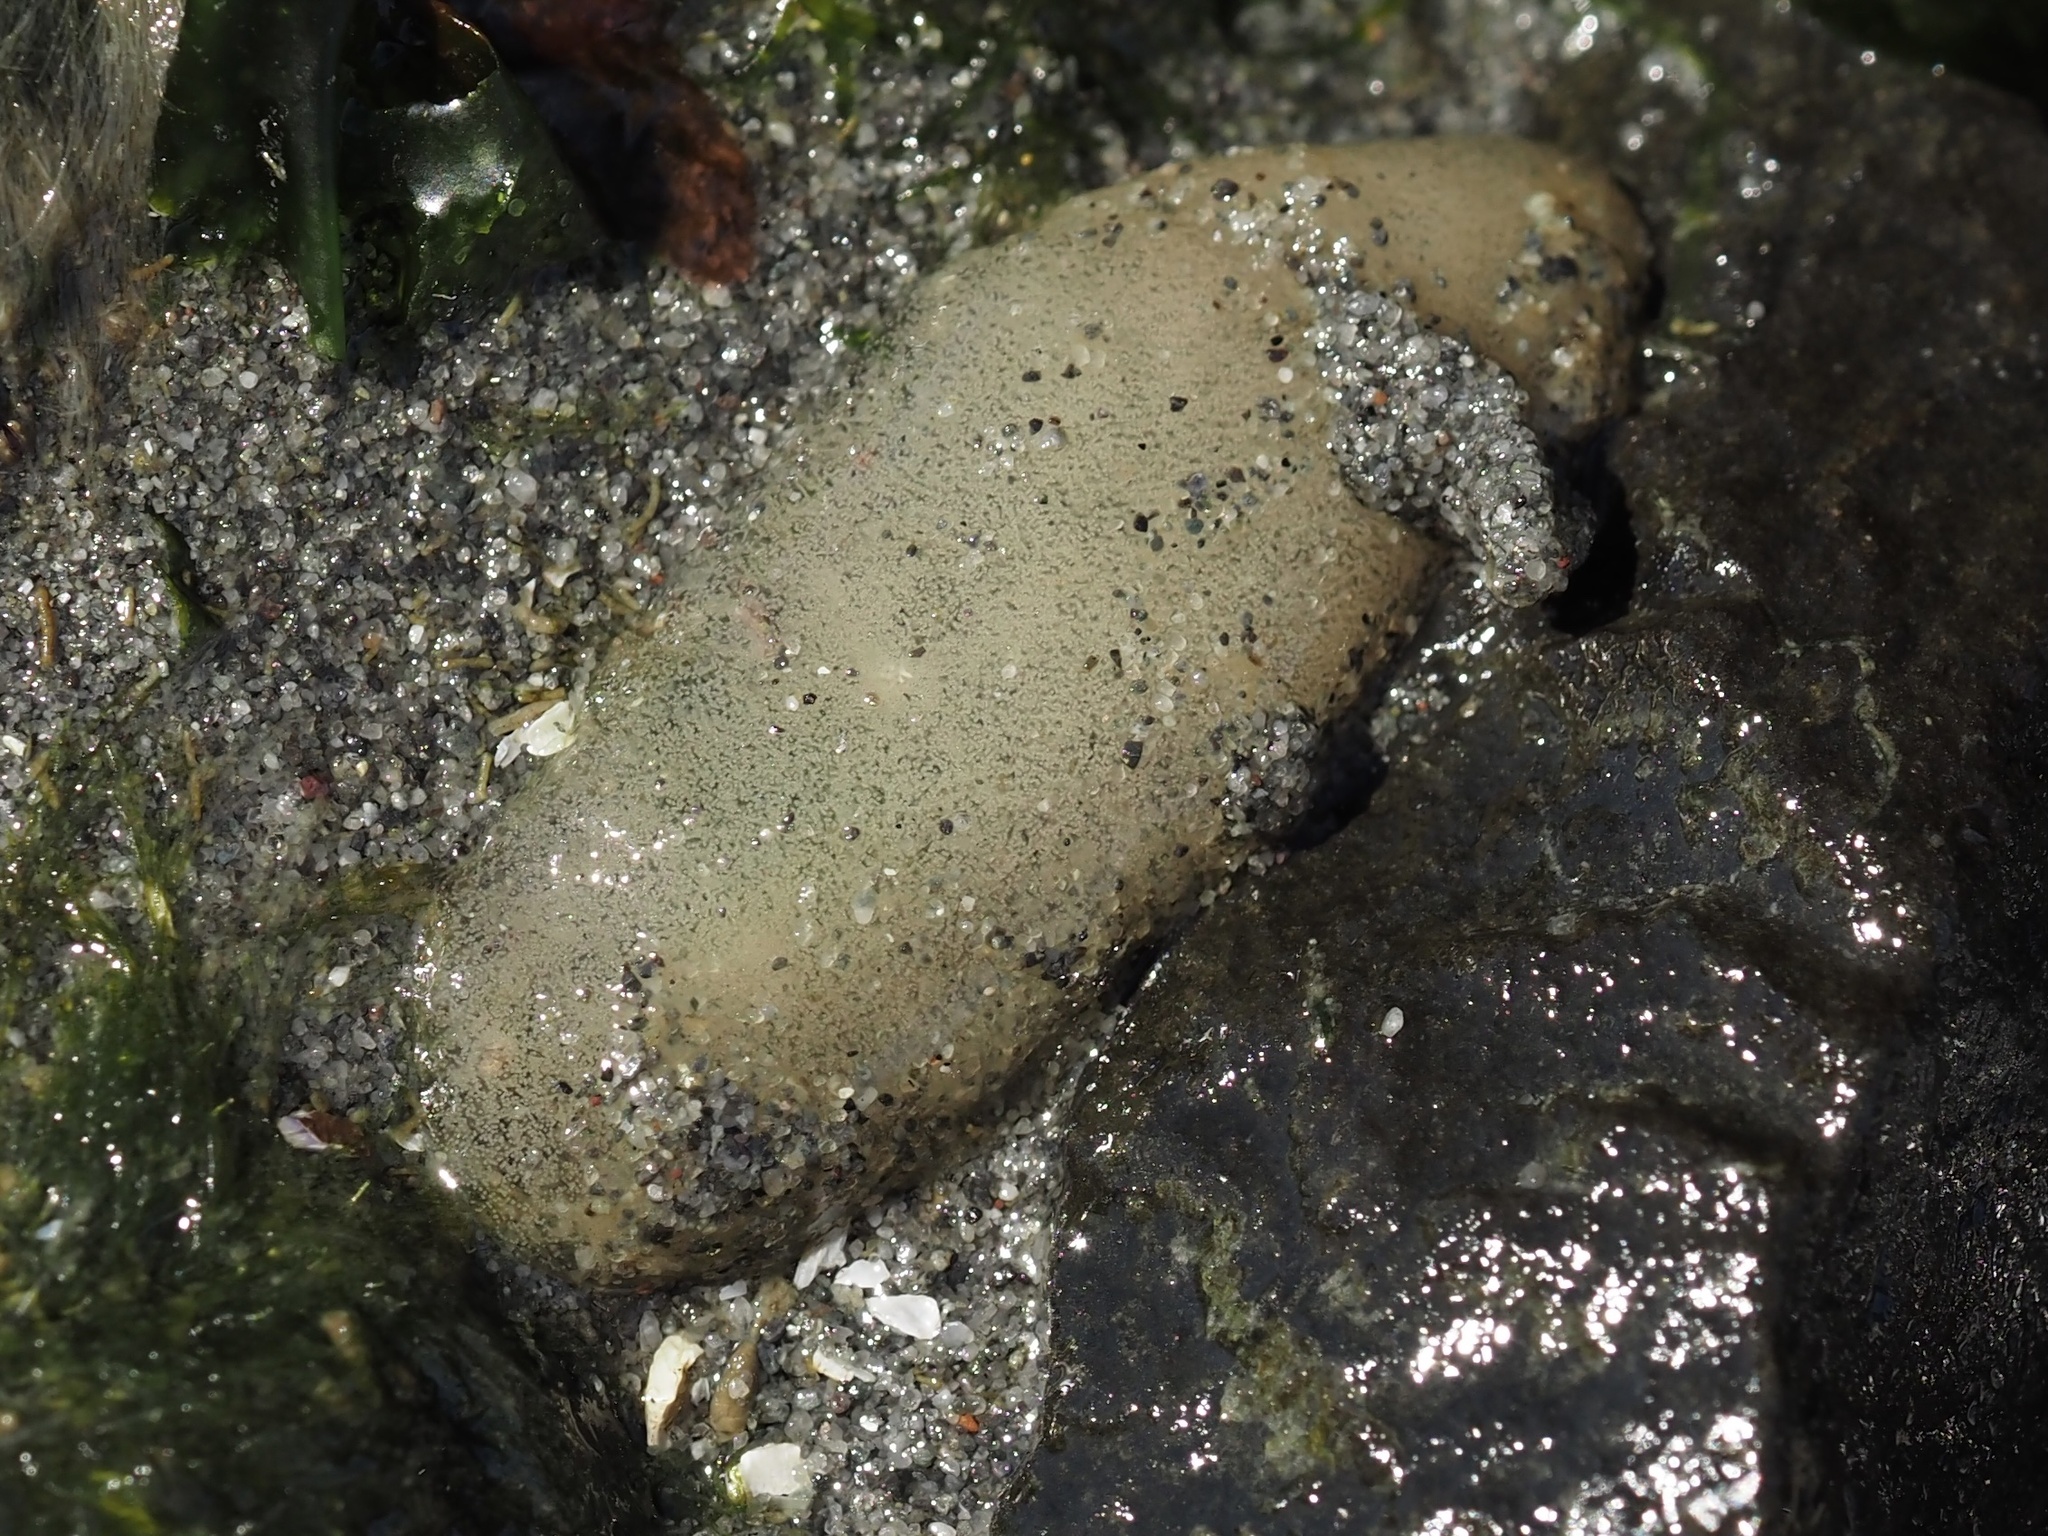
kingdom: Animalia
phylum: Mollusca
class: Gastropoda
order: Cephalaspidea
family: Aglajidae
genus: Aglaja
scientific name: Aglaja ocelligera
